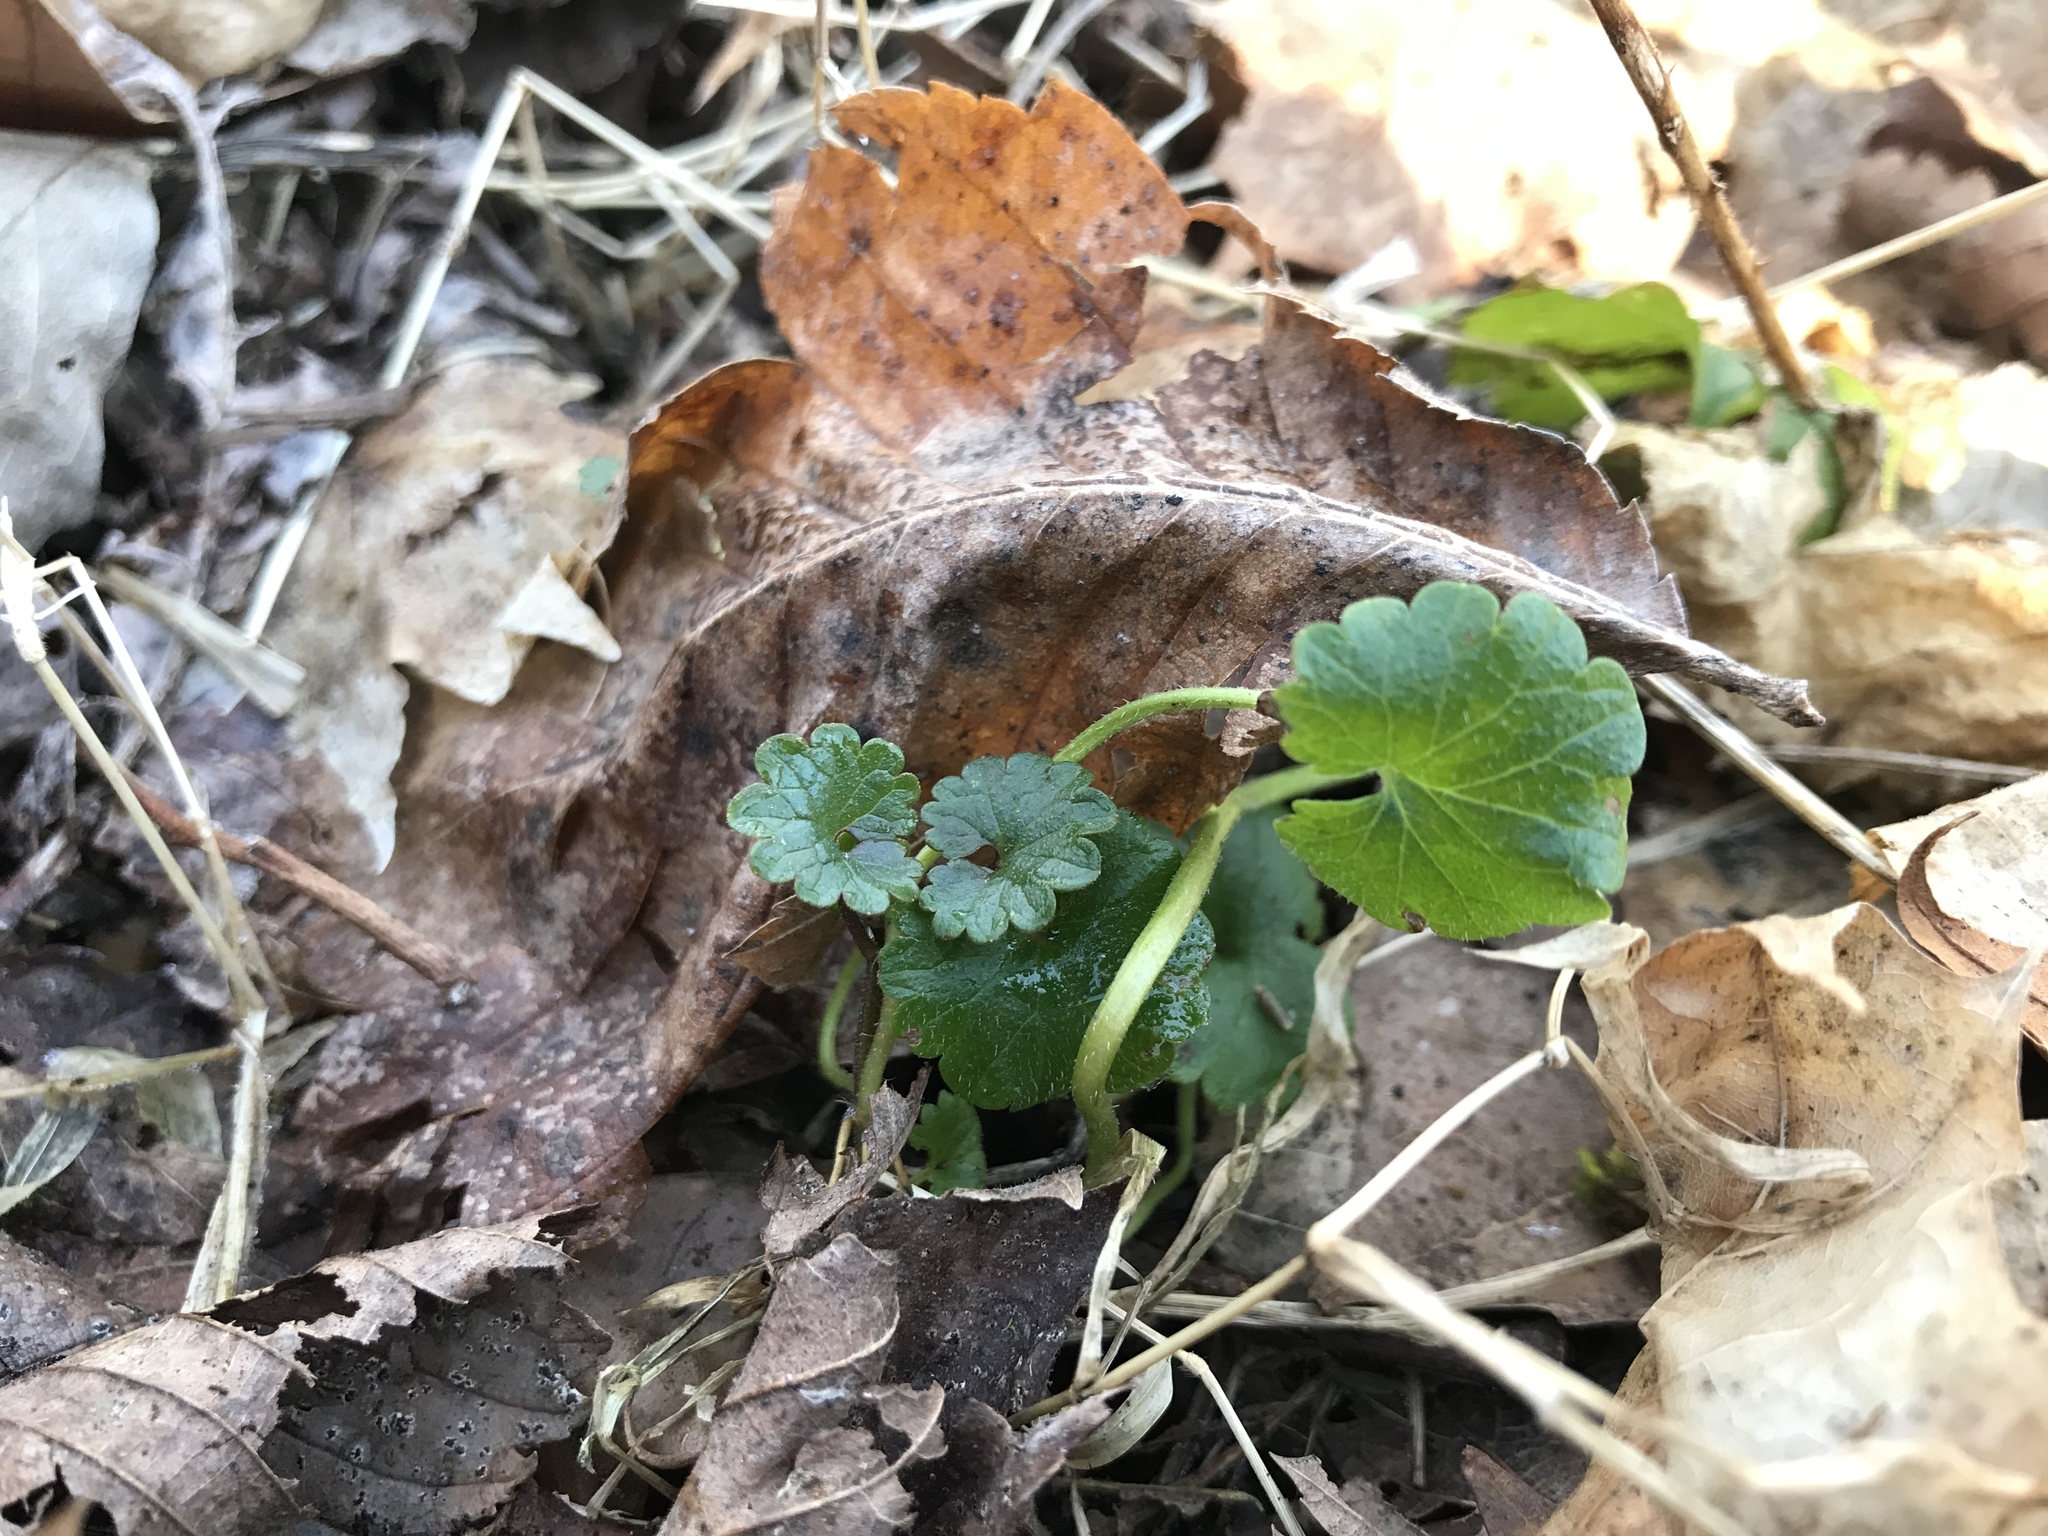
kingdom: Plantae
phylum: Tracheophyta
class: Magnoliopsida
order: Lamiales
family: Lamiaceae
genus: Glechoma
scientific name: Glechoma hederacea
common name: Ground ivy
